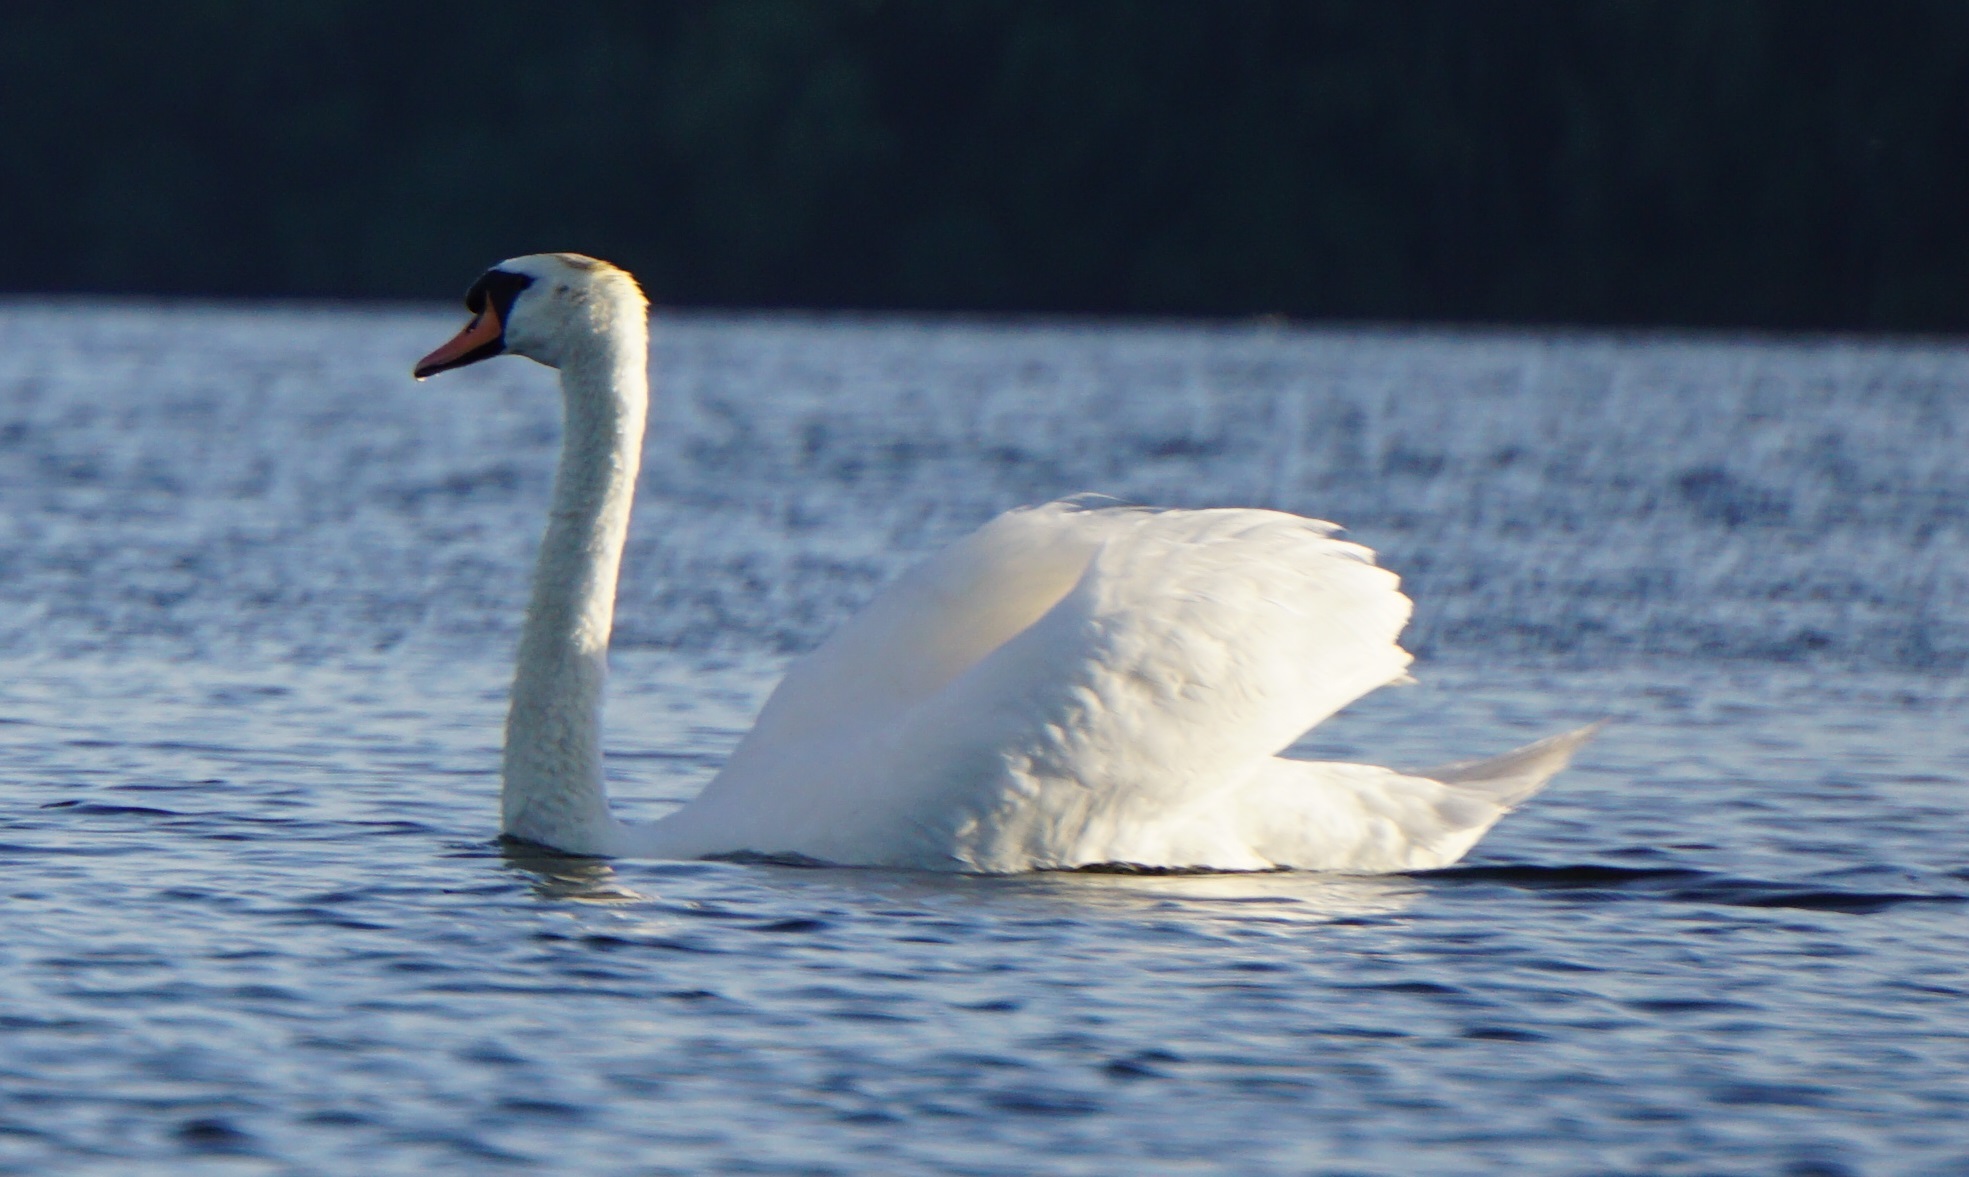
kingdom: Animalia
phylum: Chordata
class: Aves
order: Anseriformes
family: Anatidae
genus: Cygnus
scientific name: Cygnus olor
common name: Mute swan
